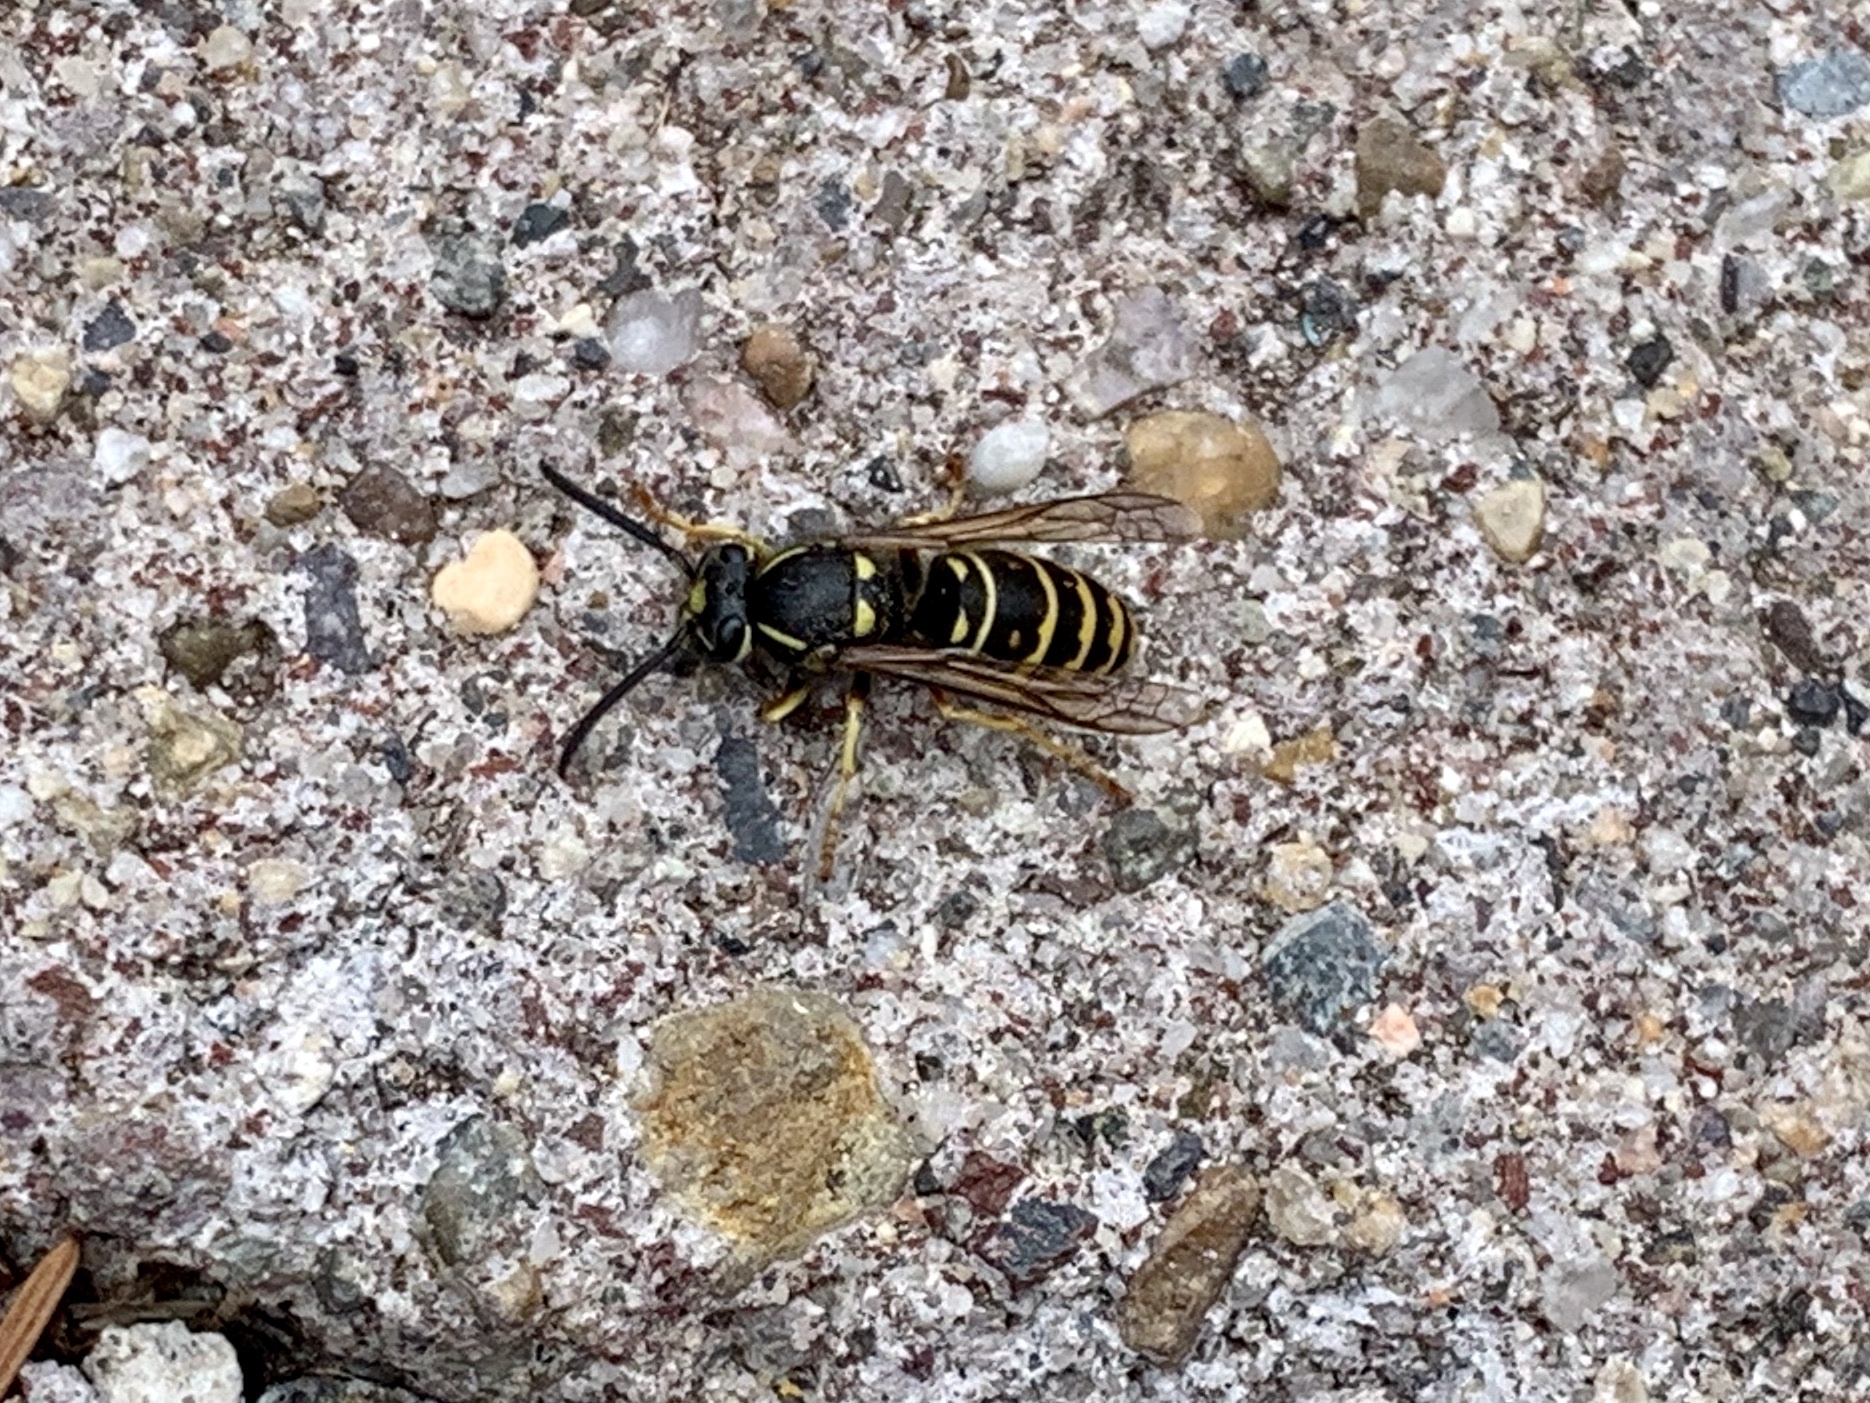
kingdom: Animalia
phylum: Arthropoda
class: Insecta
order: Hymenoptera
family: Vespidae
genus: Vespula
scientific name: Vespula acadica
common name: Forest yellowjacket
